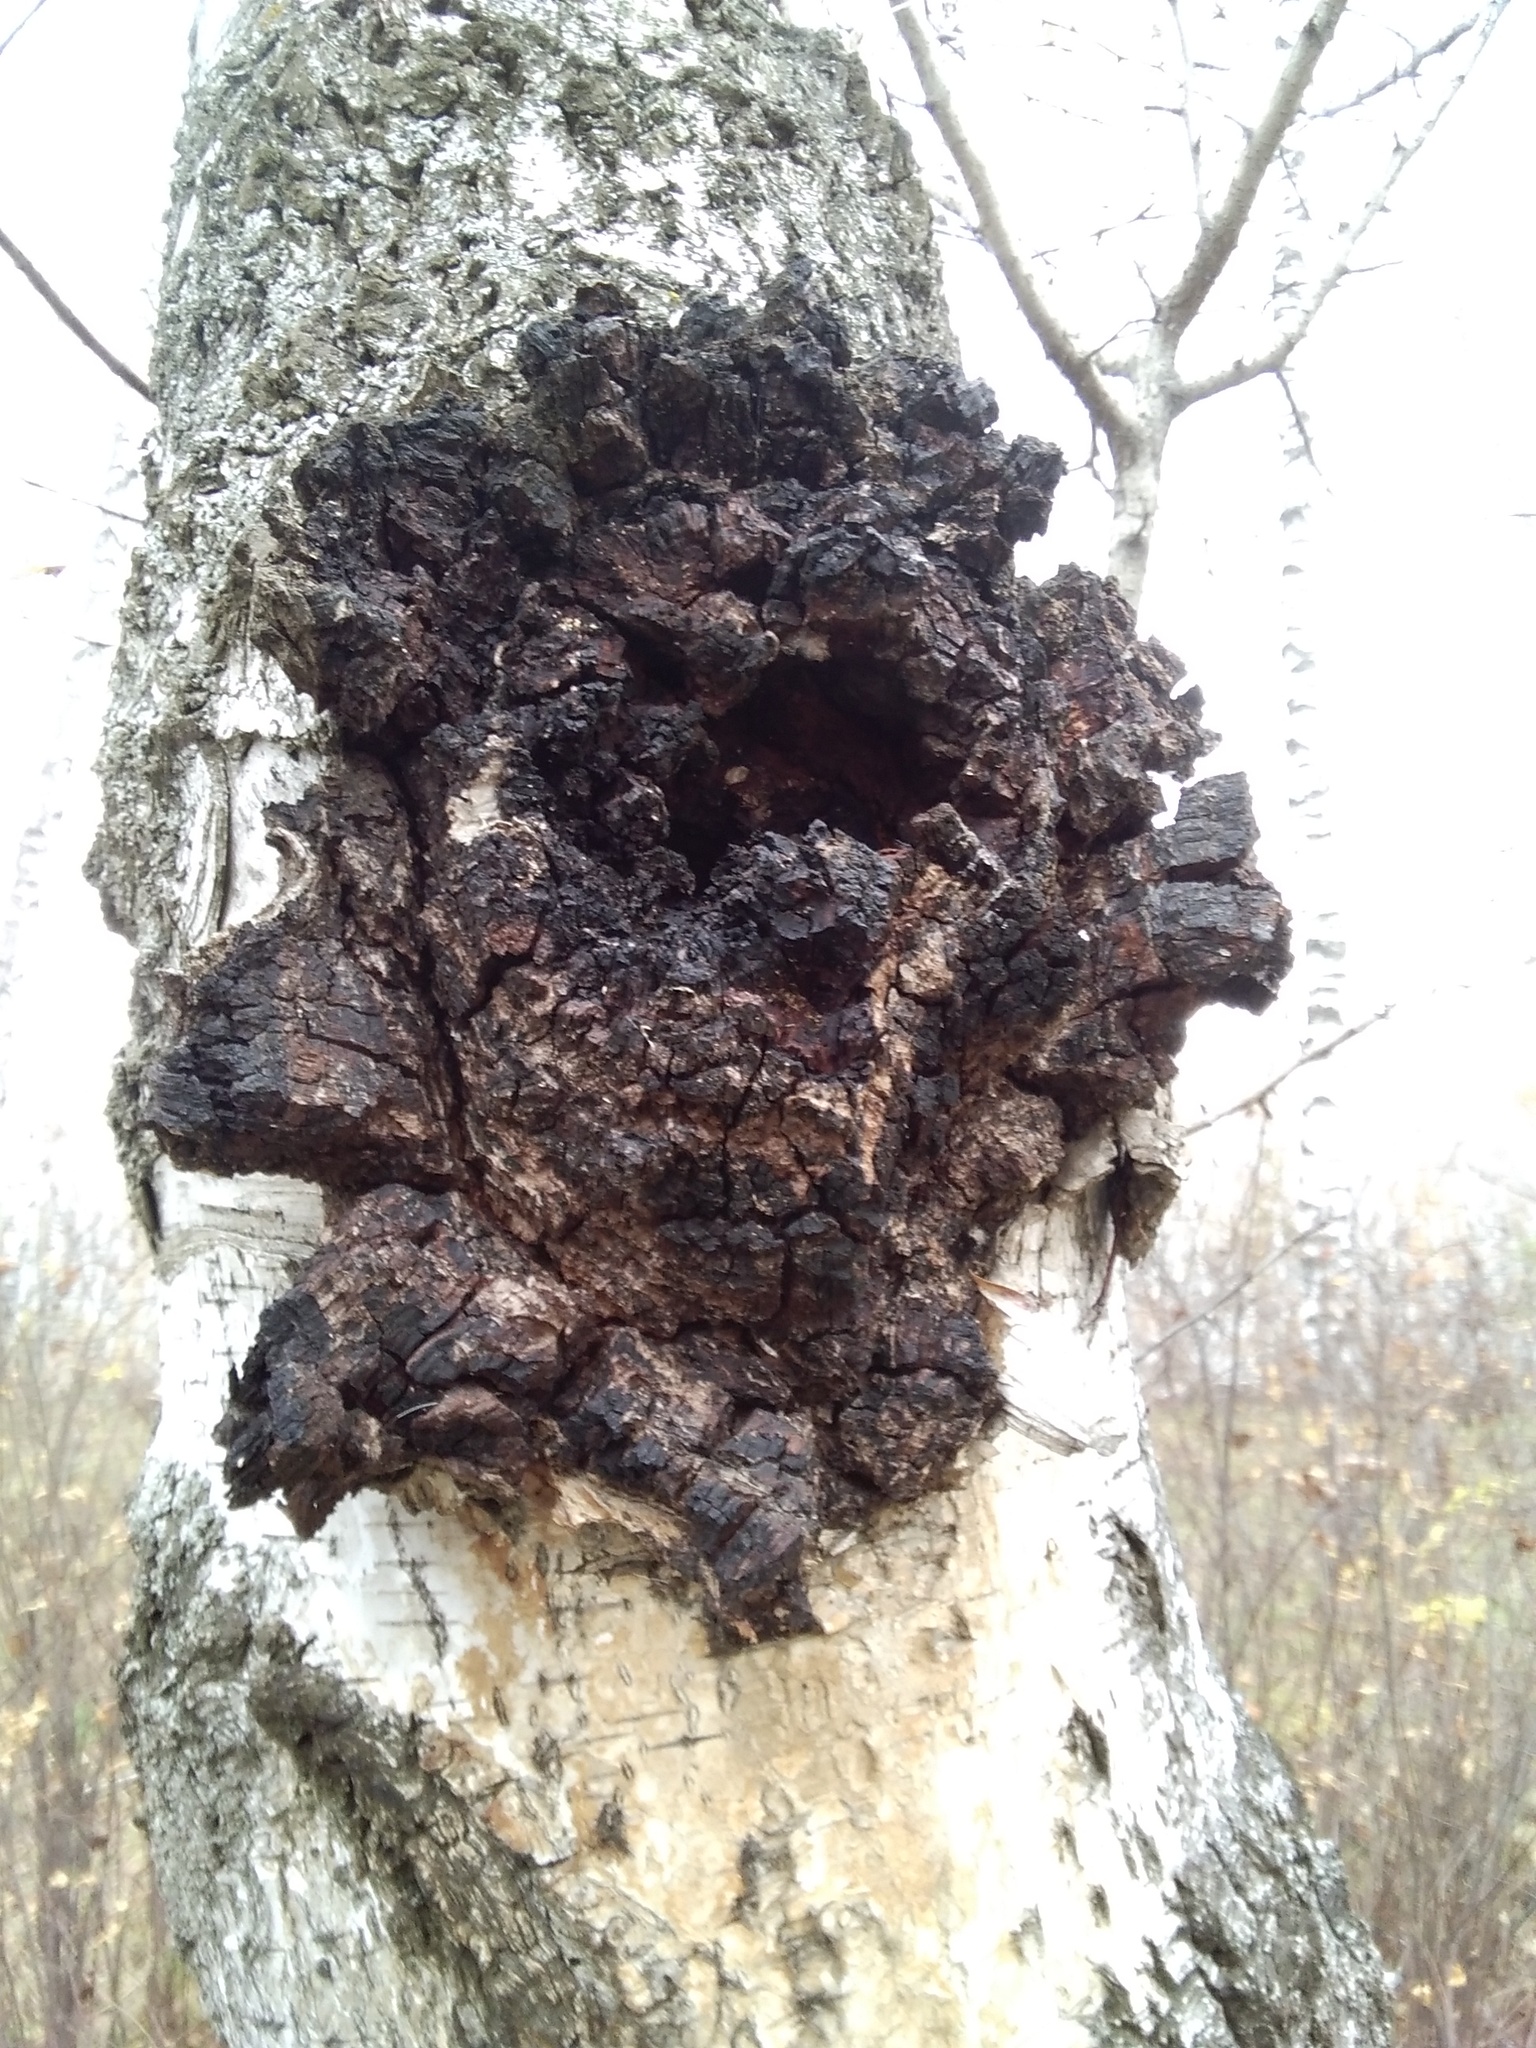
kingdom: Fungi
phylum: Basidiomycota
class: Agaricomycetes
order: Hymenochaetales
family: Hymenochaetaceae
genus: Inonotus
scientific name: Inonotus obliquus
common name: Chaga
